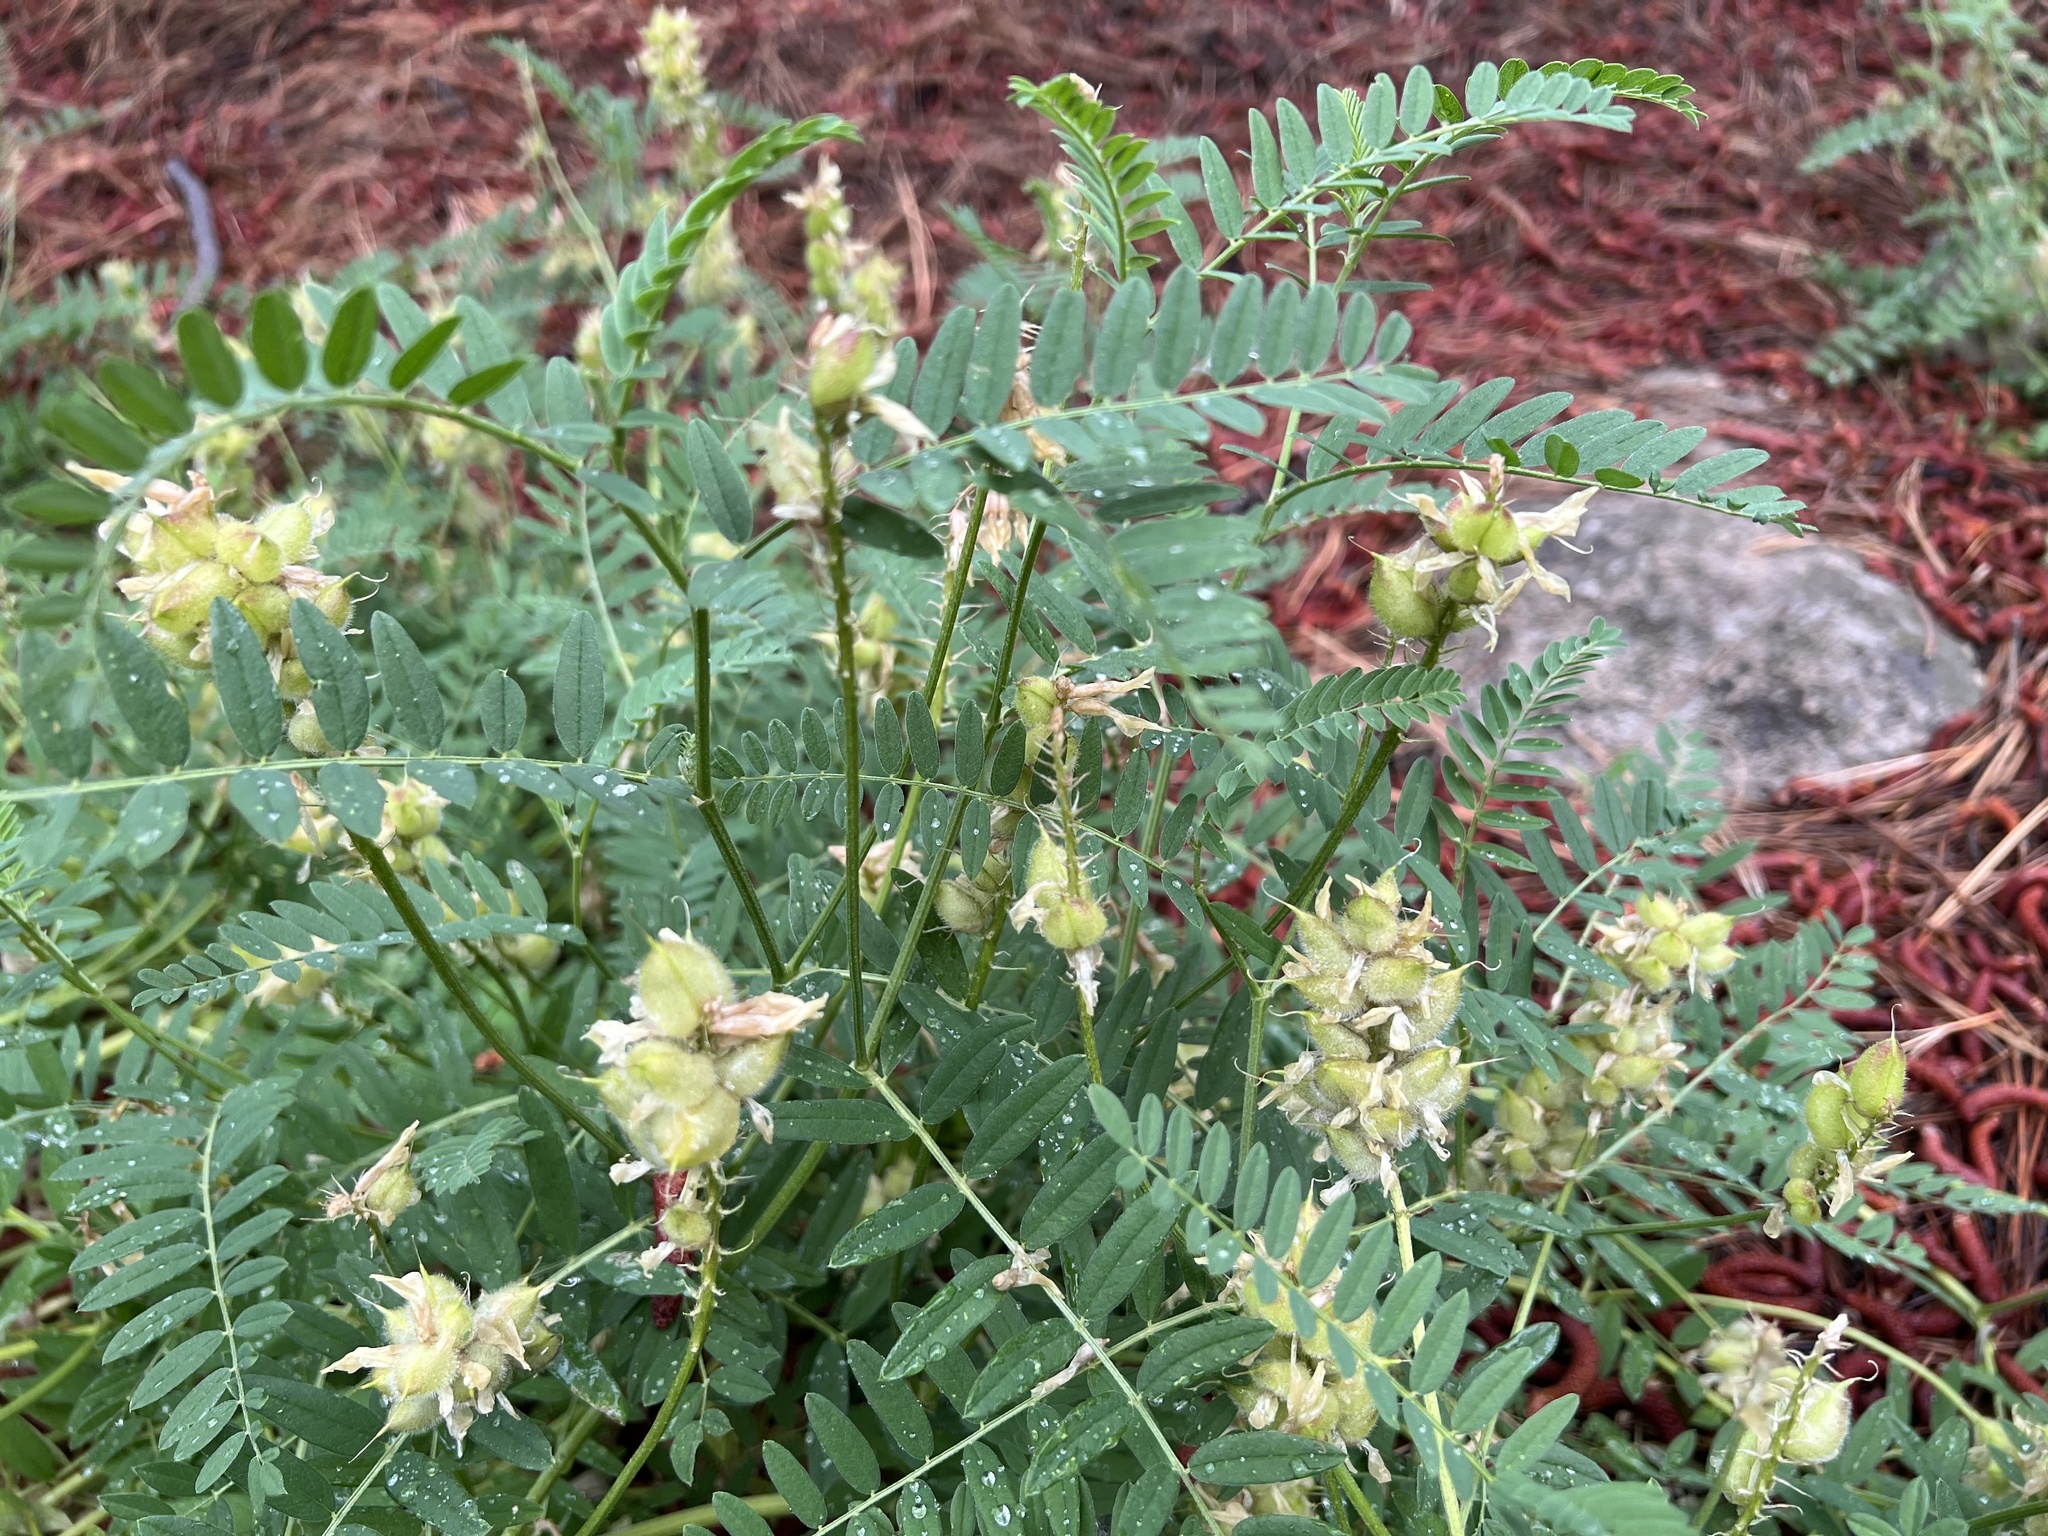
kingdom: Plantae
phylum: Tracheophyta
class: Magnoliopsida
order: Fabales
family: Fabaceae
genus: Astragalus
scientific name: Astragalus cicer
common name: Chick-pea milk-vetch
